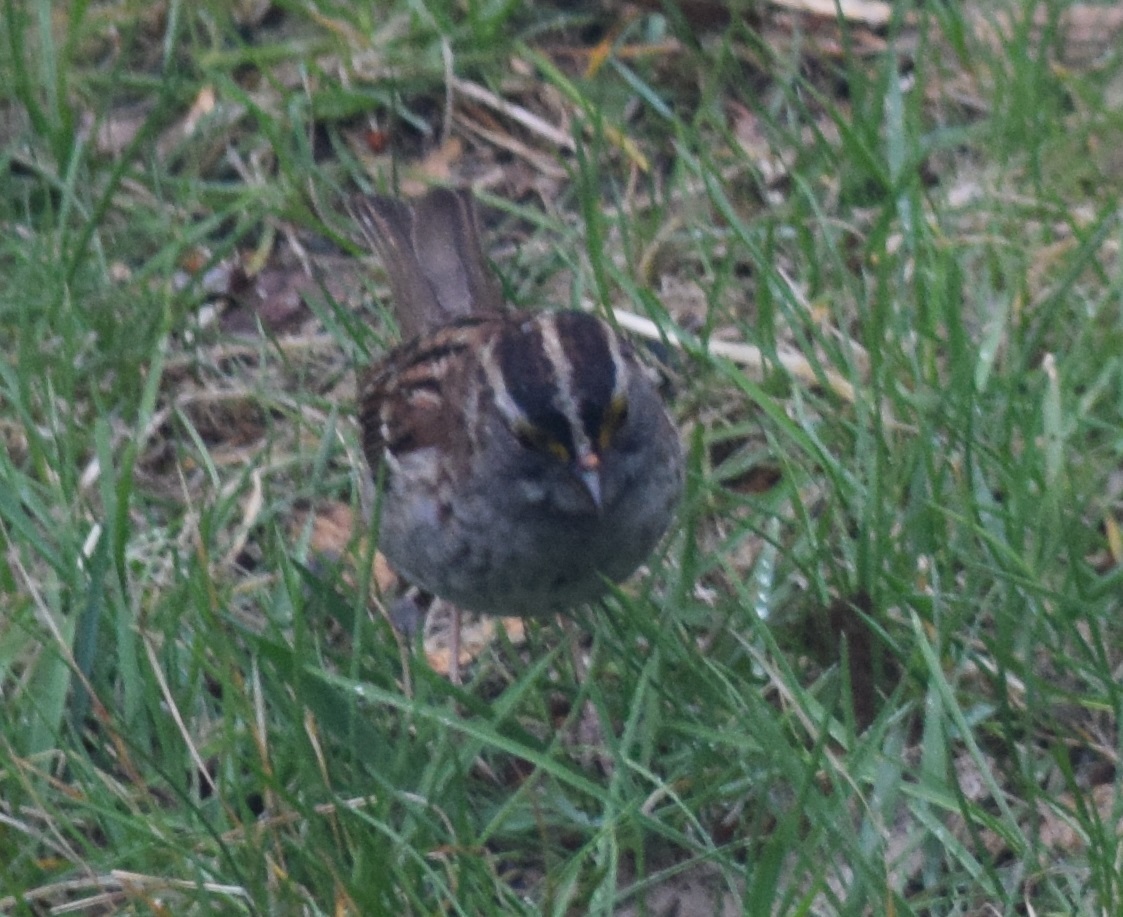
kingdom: Animalia
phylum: Chordata
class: Aves
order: Passeriformes
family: Passerellidae
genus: Zonotrichia
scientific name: Zonotrichia albicollis
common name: White-throated sparrow
